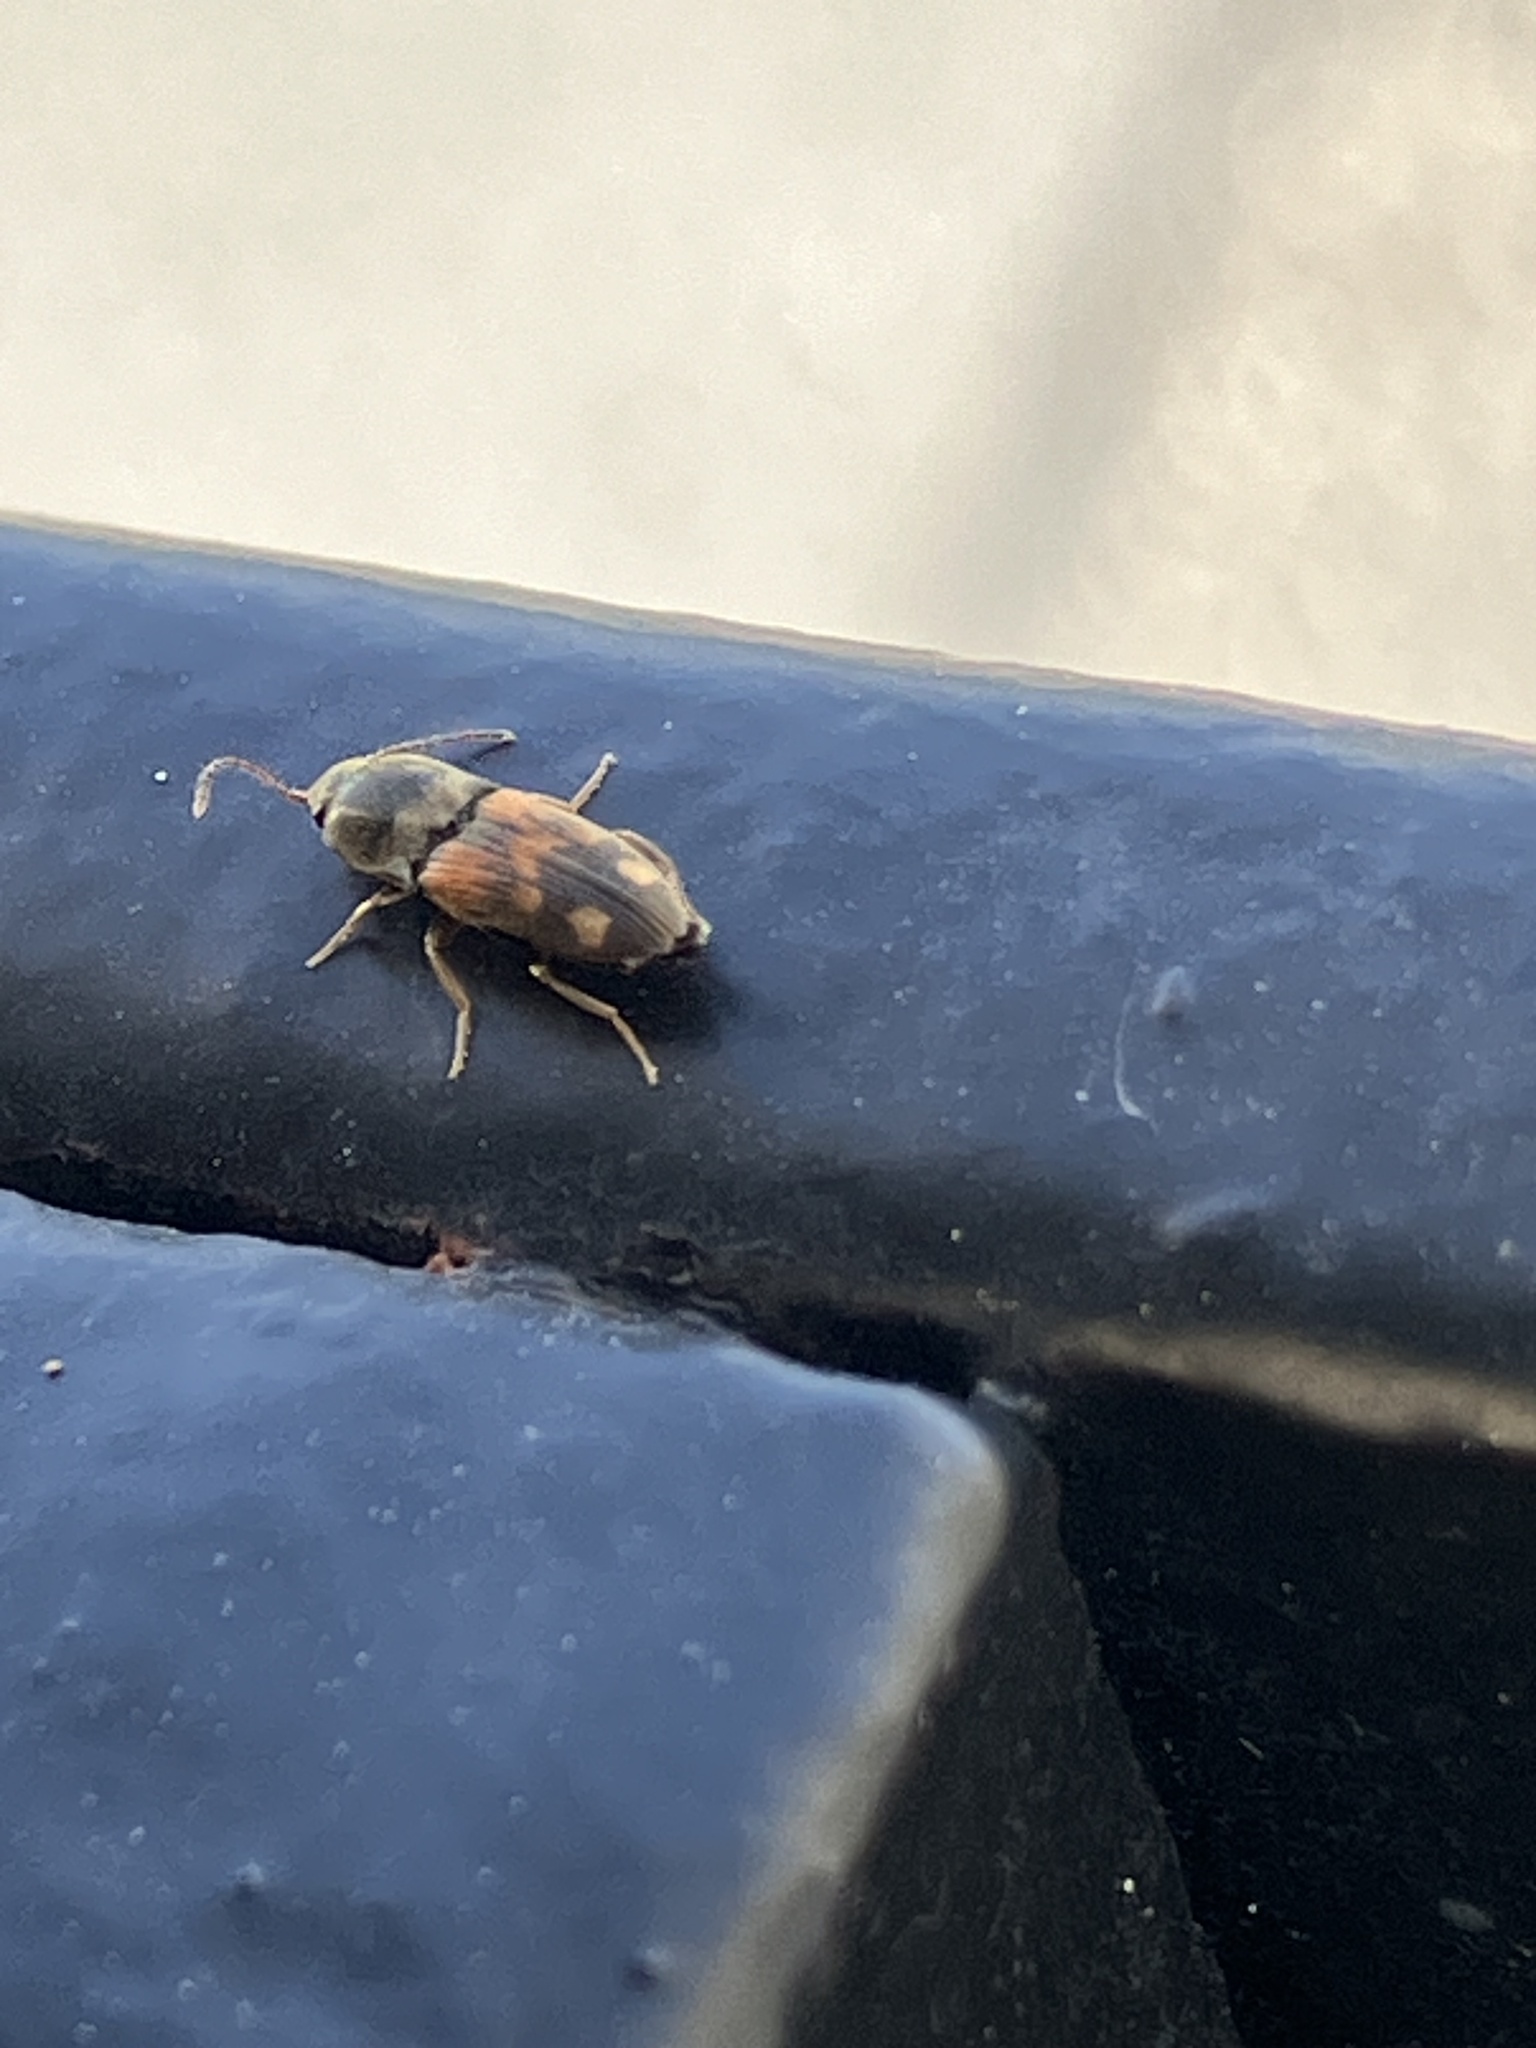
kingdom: Animalia
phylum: Arthropoda
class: Insecta
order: Coleoptera
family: Elateridae
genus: Drasterius
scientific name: Drasterius bimaculatus
